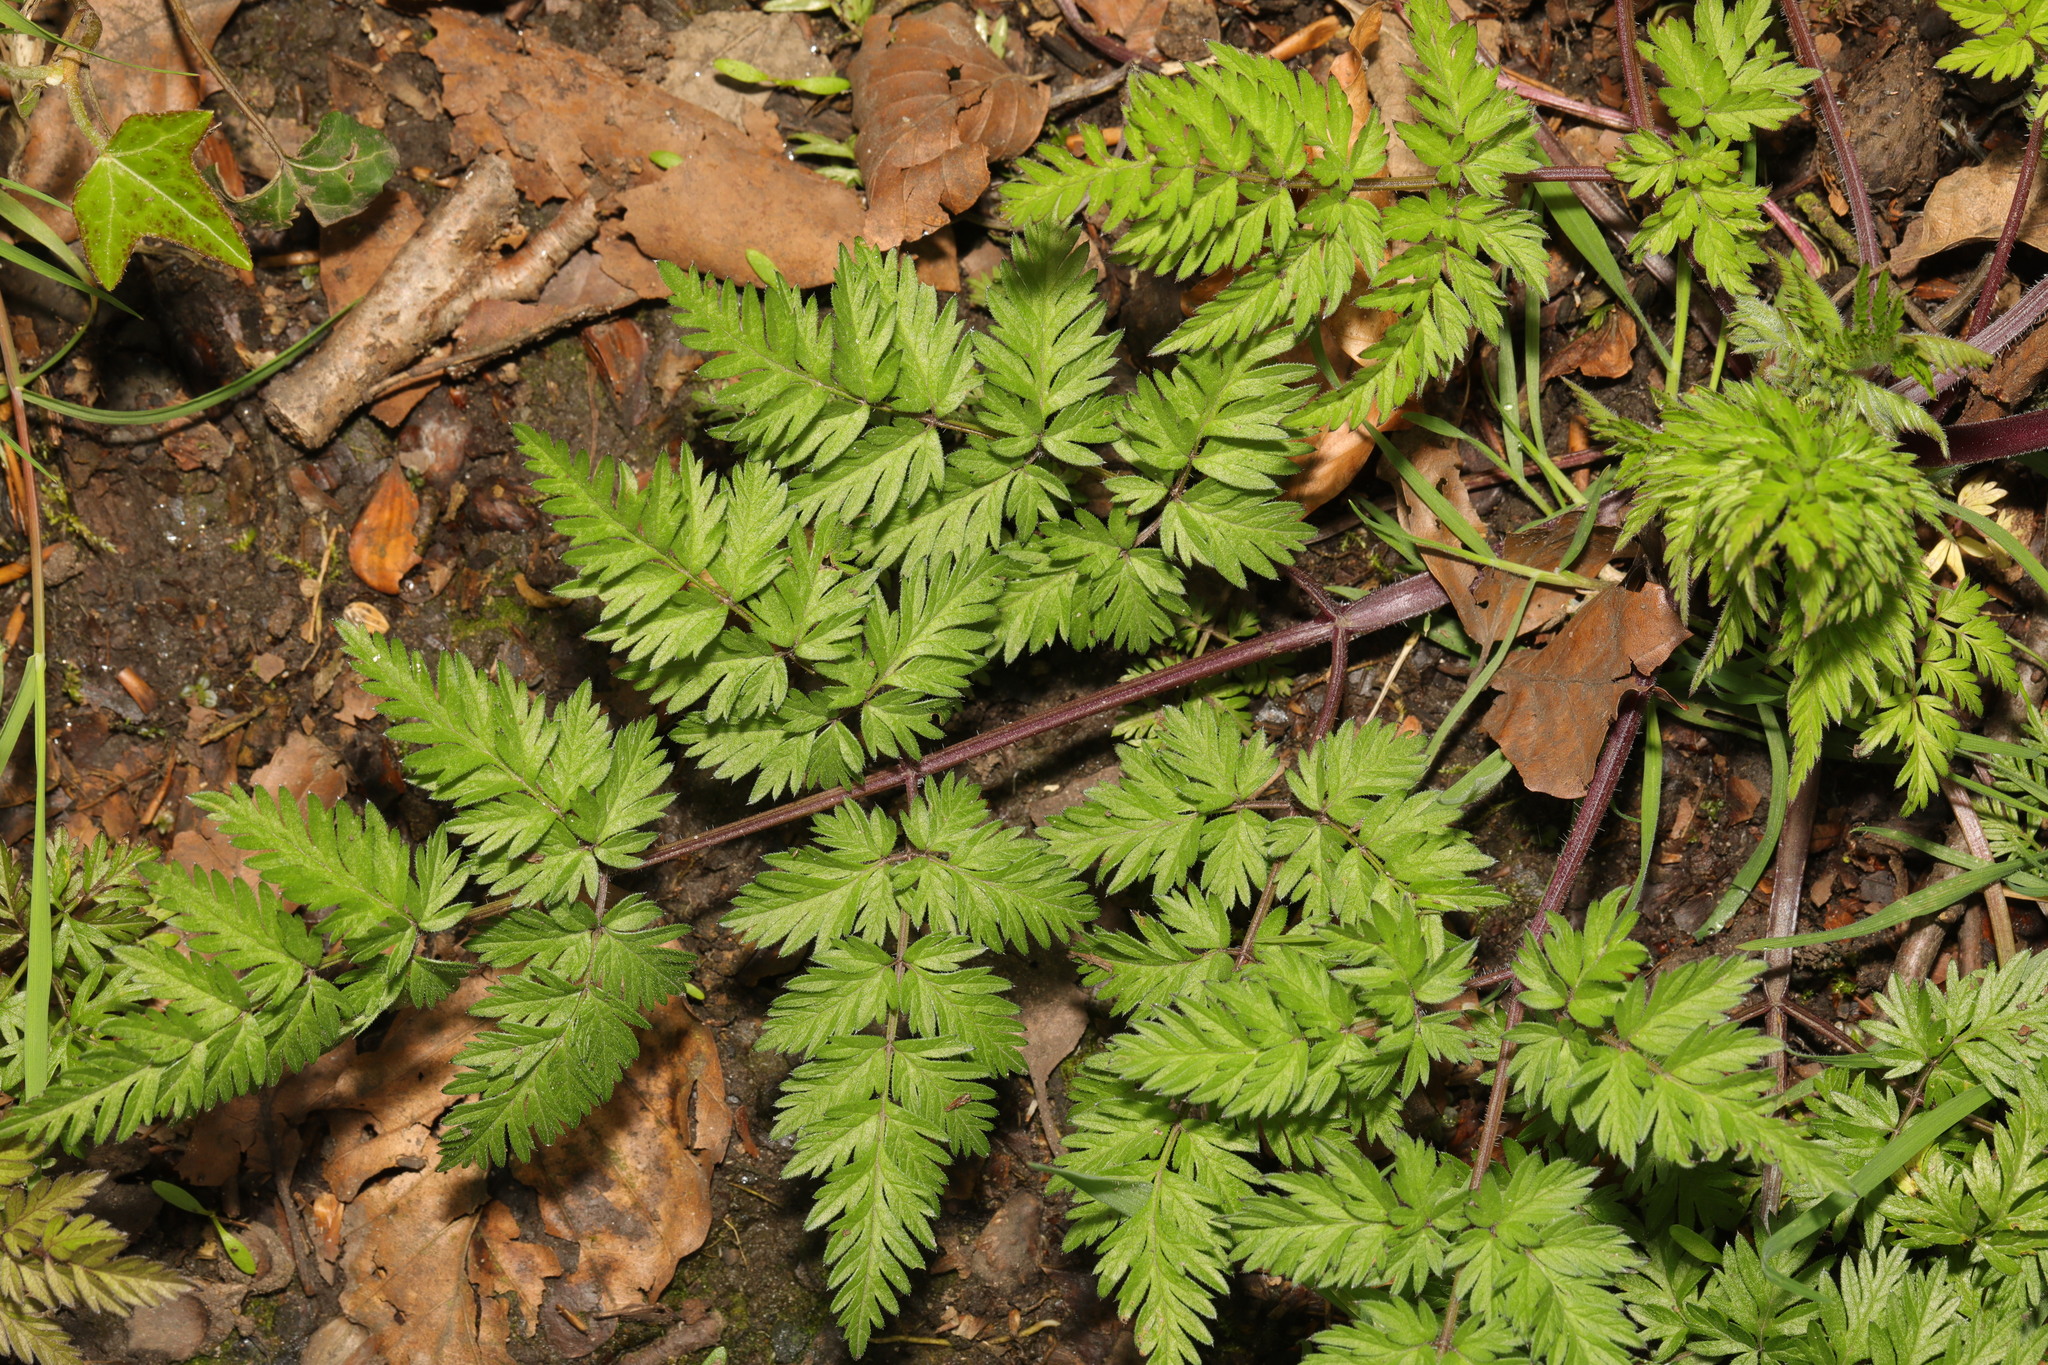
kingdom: Plantae
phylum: Tracheophyta
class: Magnoliopsida
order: Apiales
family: Apiaceae
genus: Anthriscus
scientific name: Anthriscus sylvestris
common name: Cow parsley
